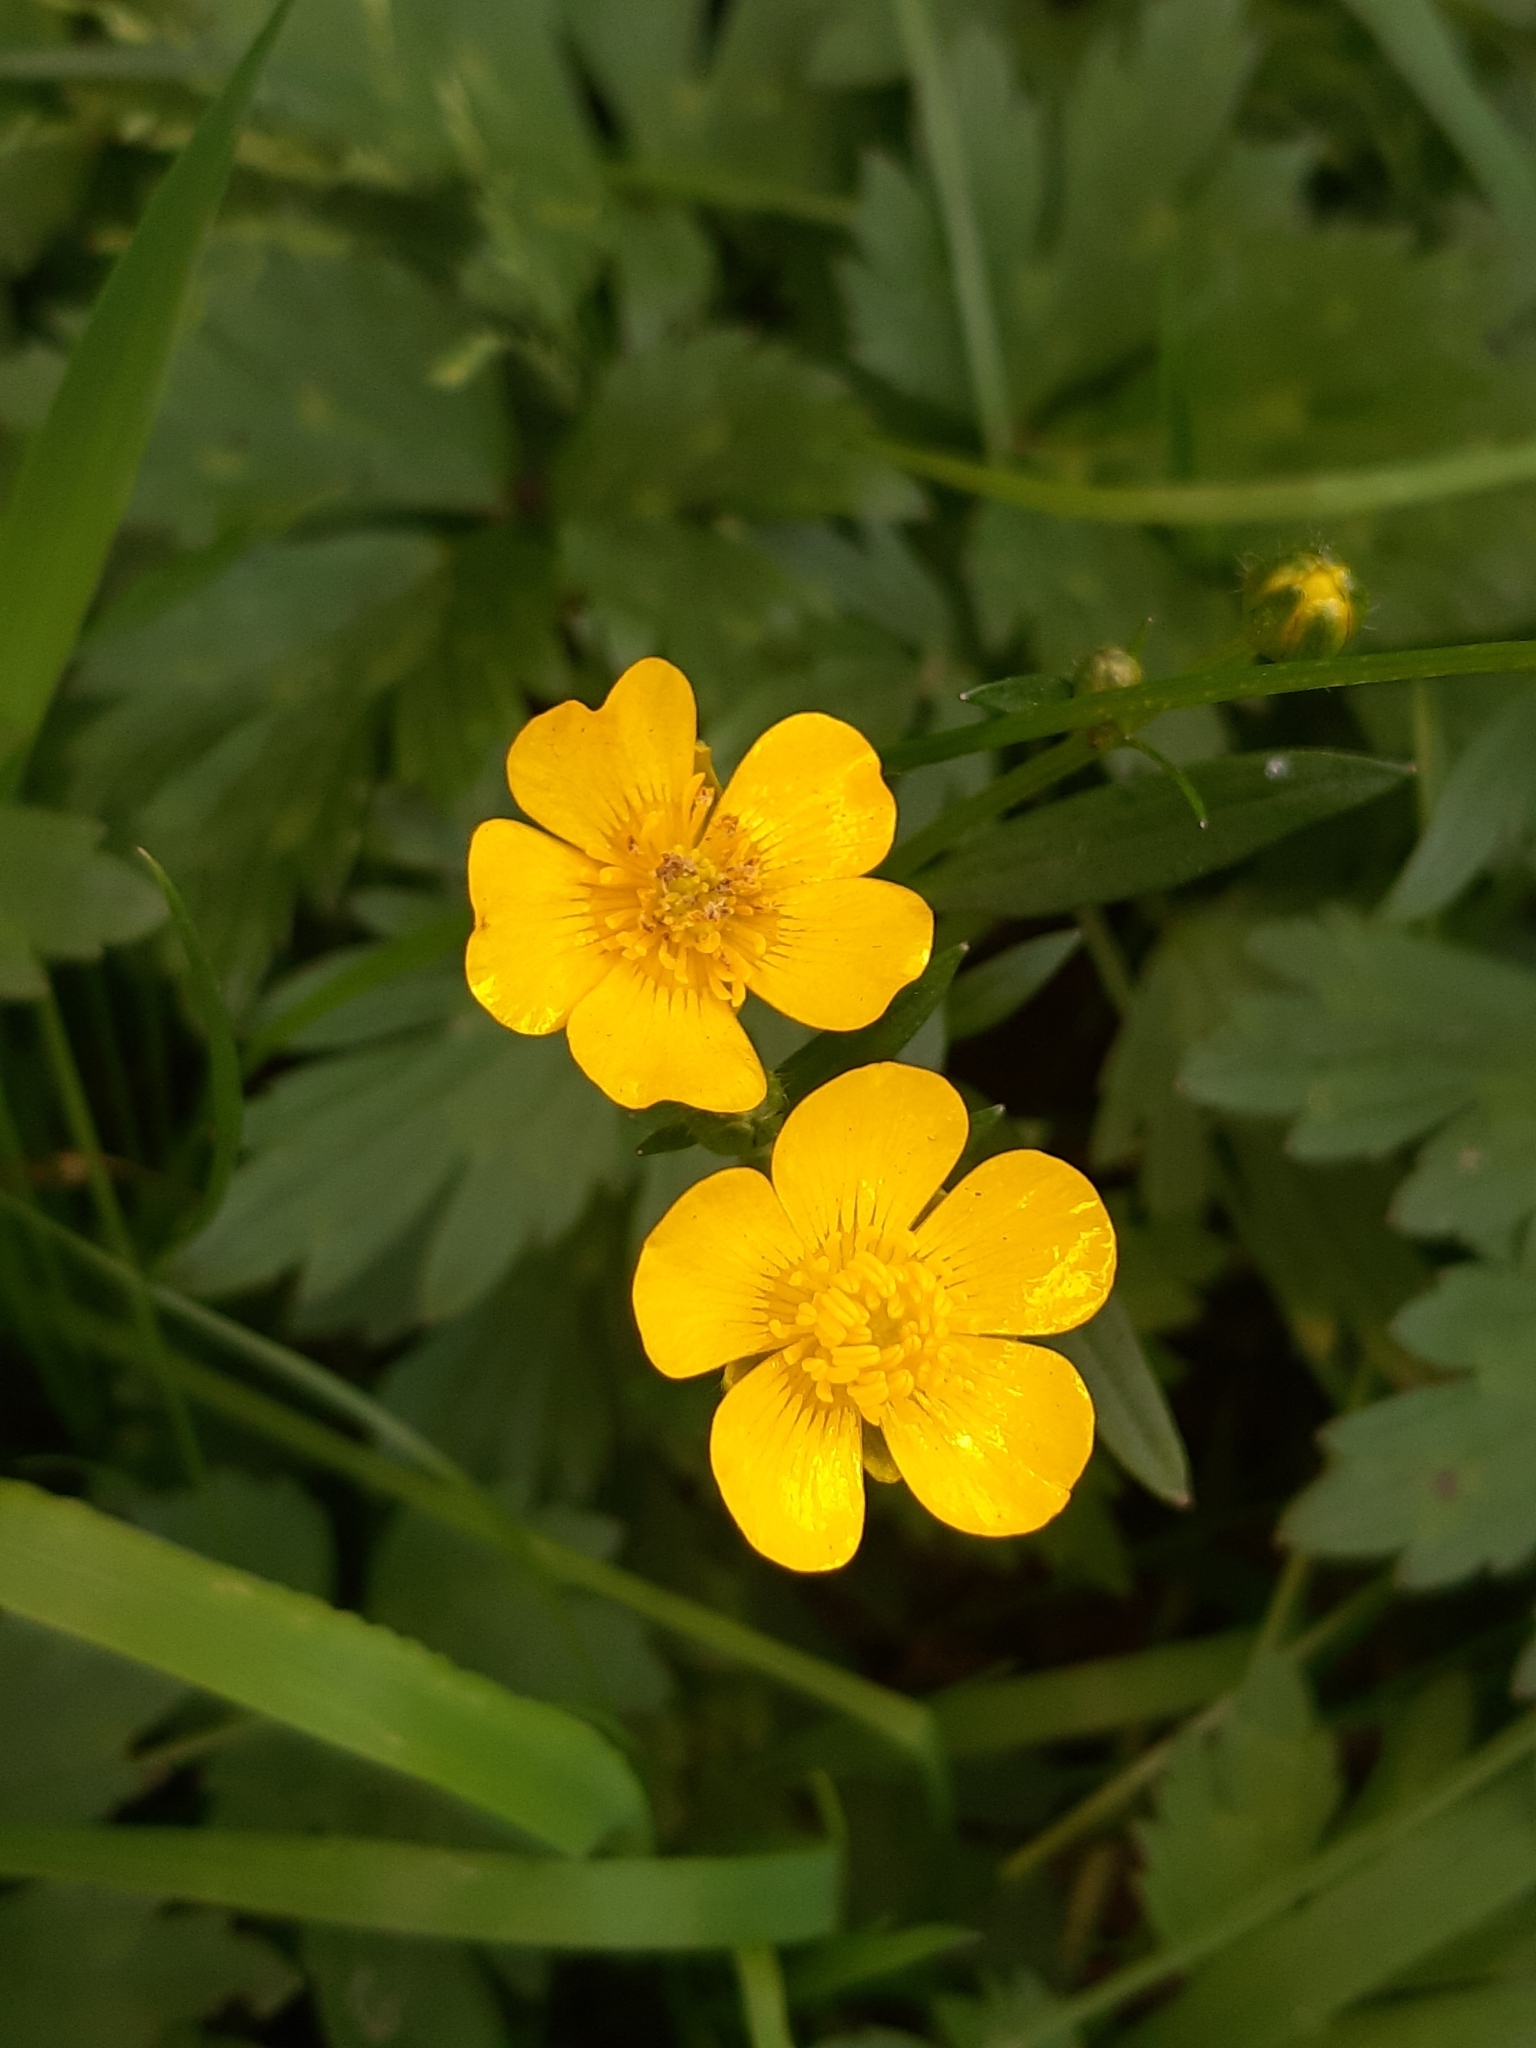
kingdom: Plantae
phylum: Tracheophyta
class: Magnoliopsida
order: Ranunculales
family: Ranunculaceae
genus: Ranunculus
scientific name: Ranunculus repens
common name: Creeping buttercup
